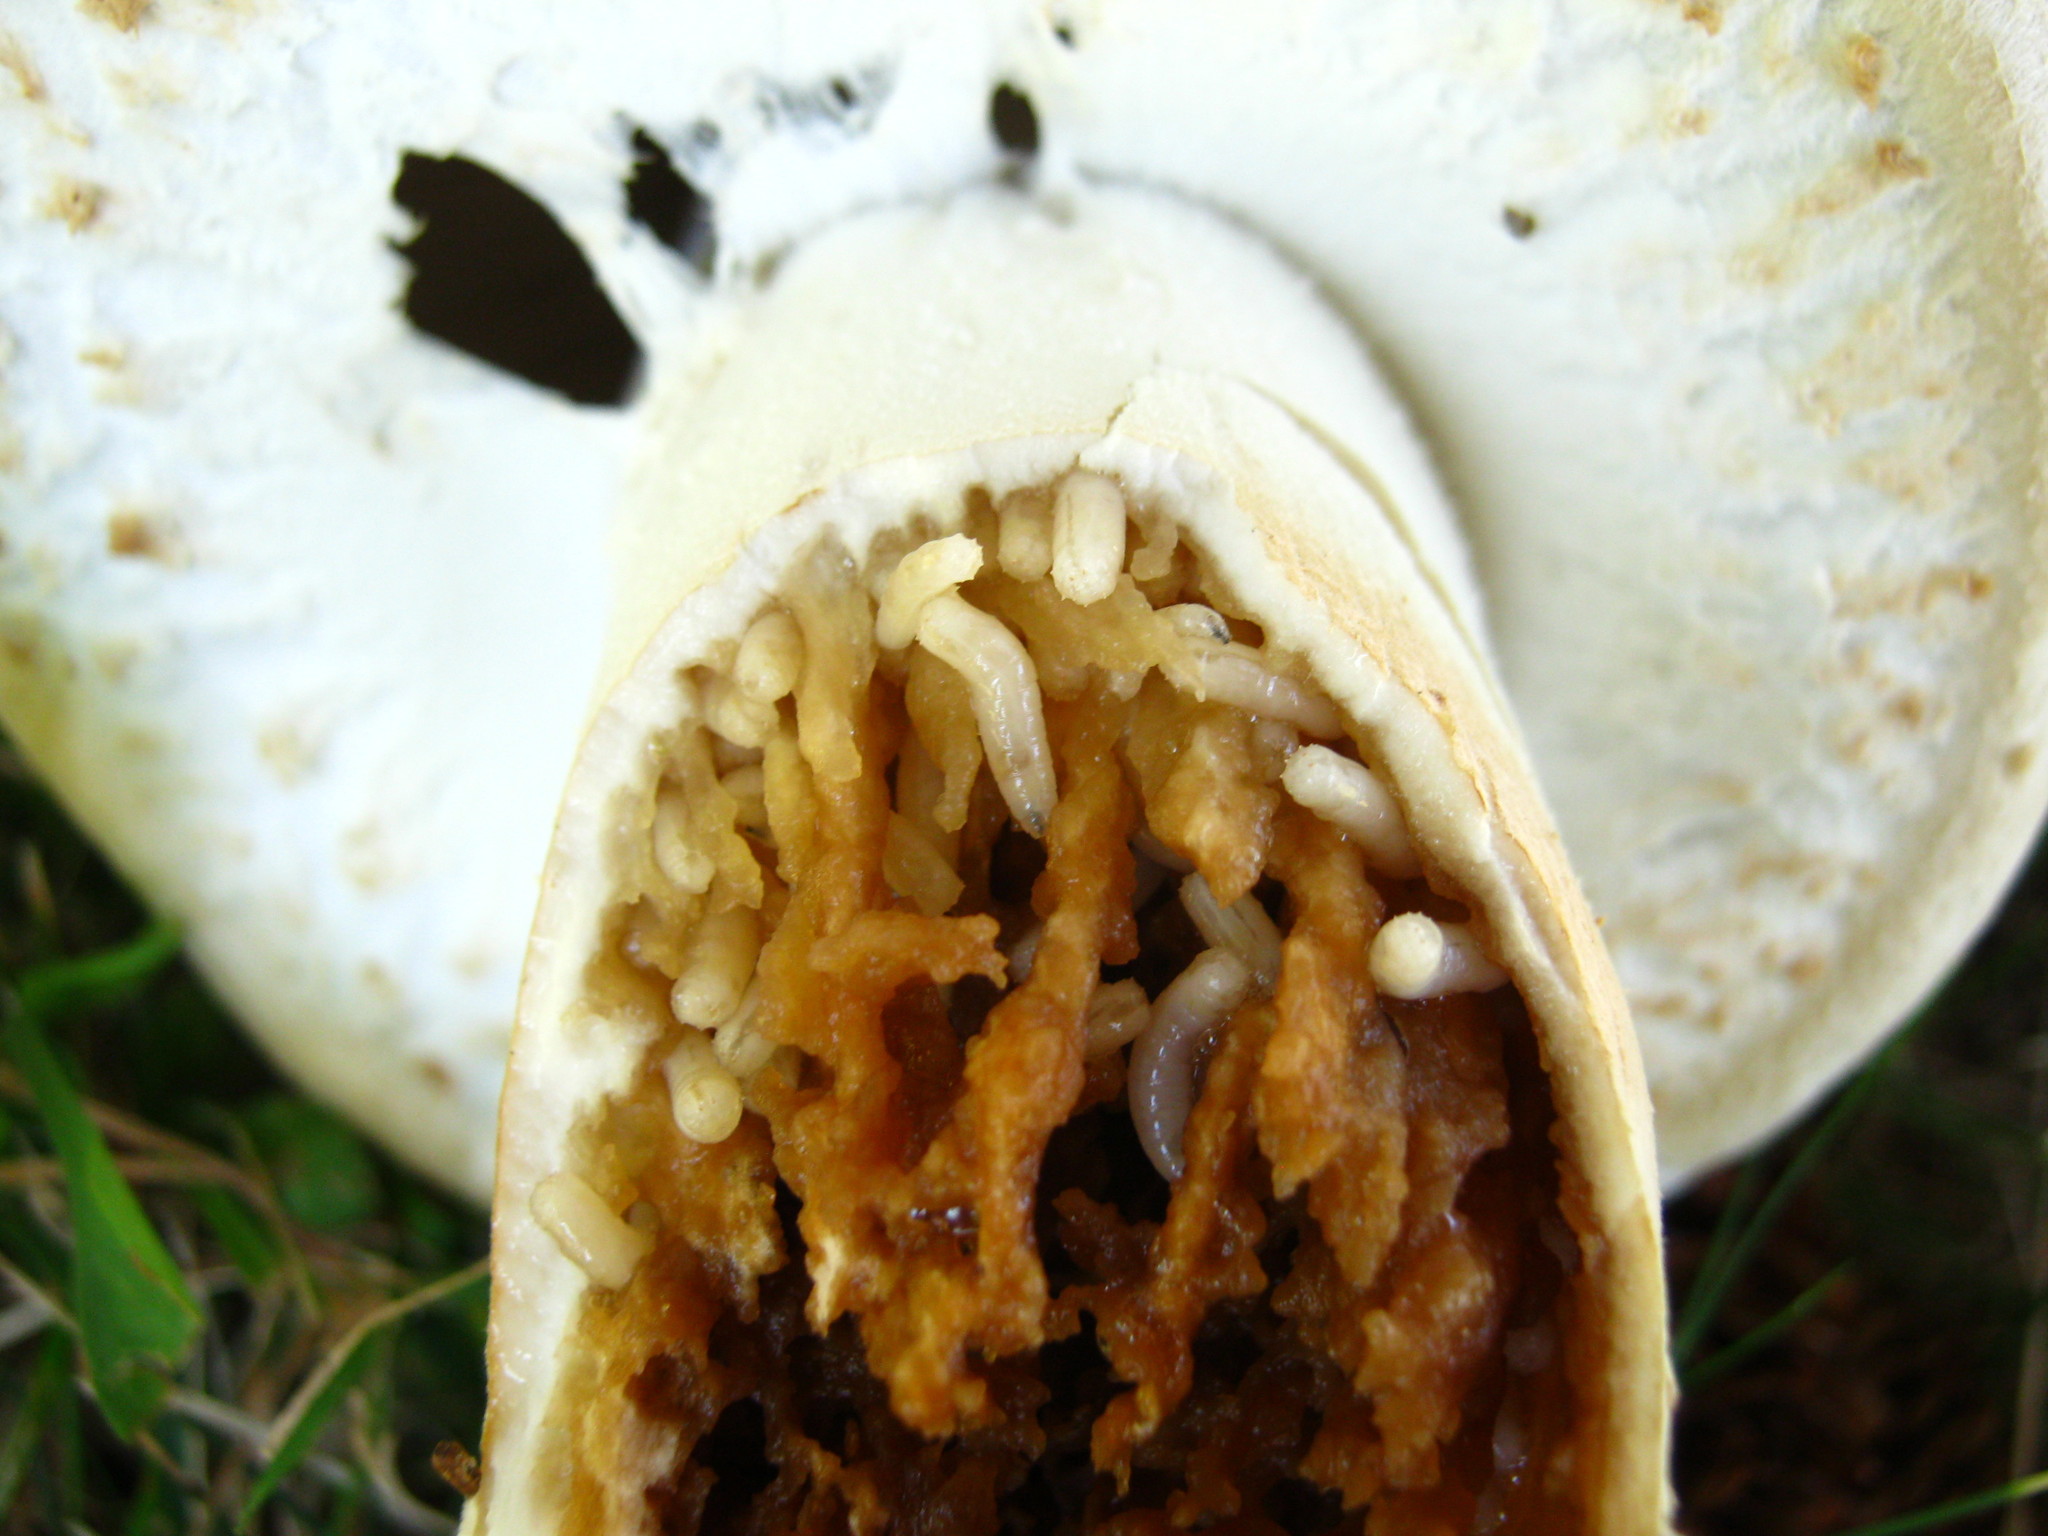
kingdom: Fungi
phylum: Basidiomycota
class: Agaricomycetes
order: Agaricales
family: Agaricaceae
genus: Agaricus
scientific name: Agaricus arvensis
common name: Horse mushroom
